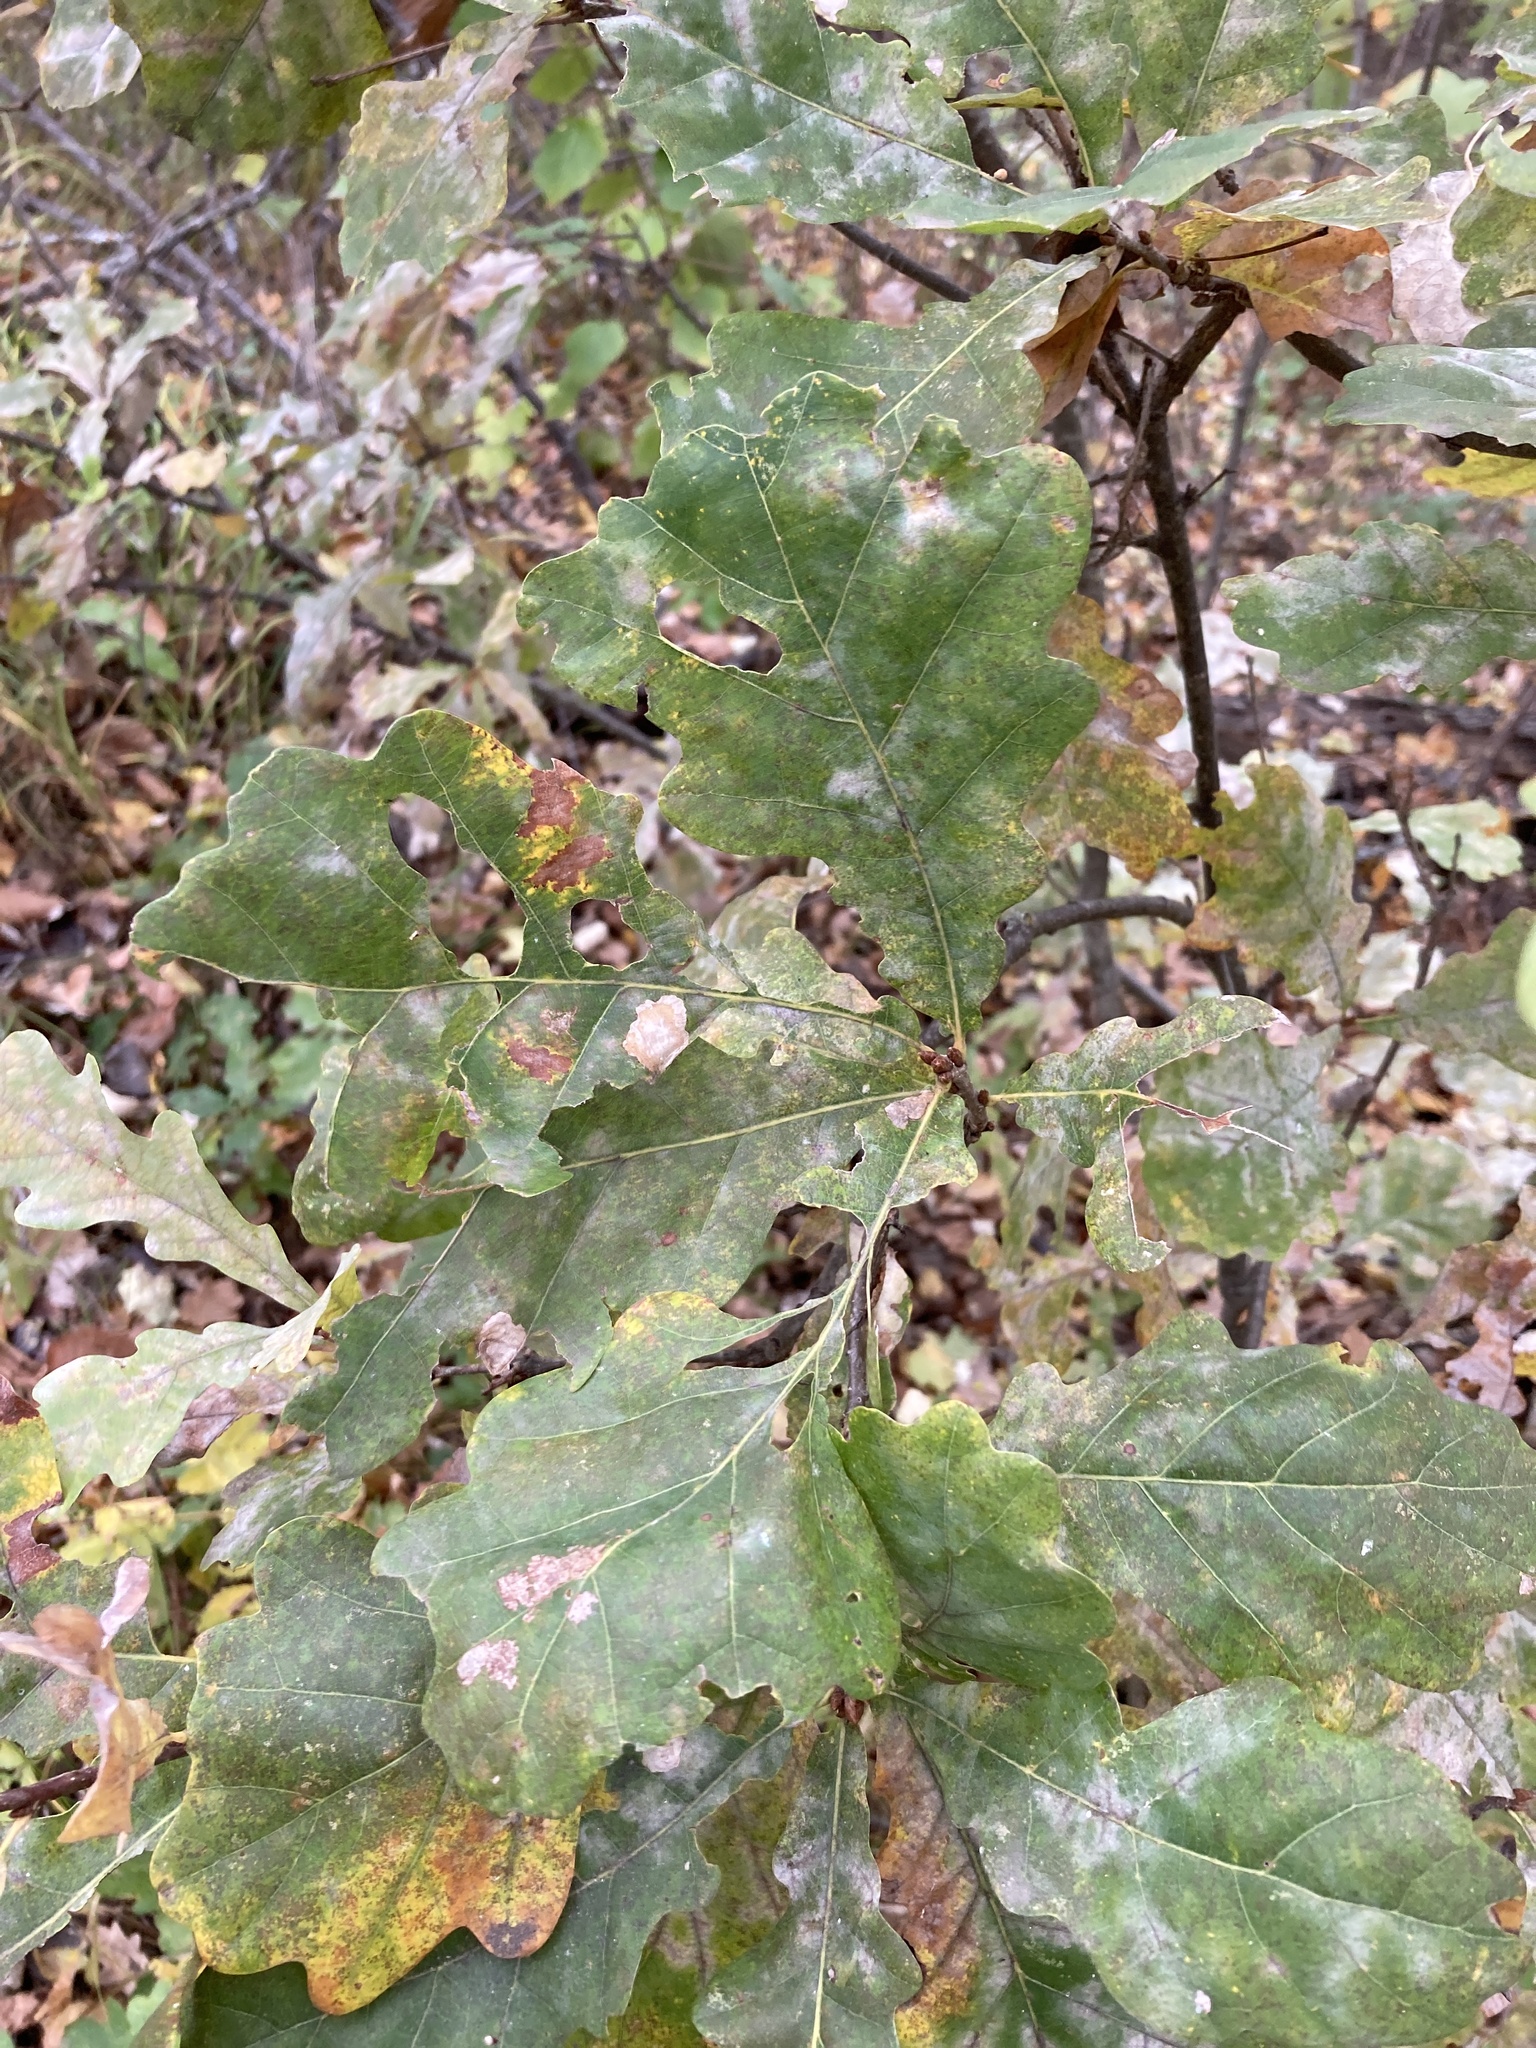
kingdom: Plantae
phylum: Tracheophyta
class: Magnoliopsida
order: Fagales
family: Fagaceae
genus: Quercus
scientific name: Quercus robur
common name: Pedunculate oak
